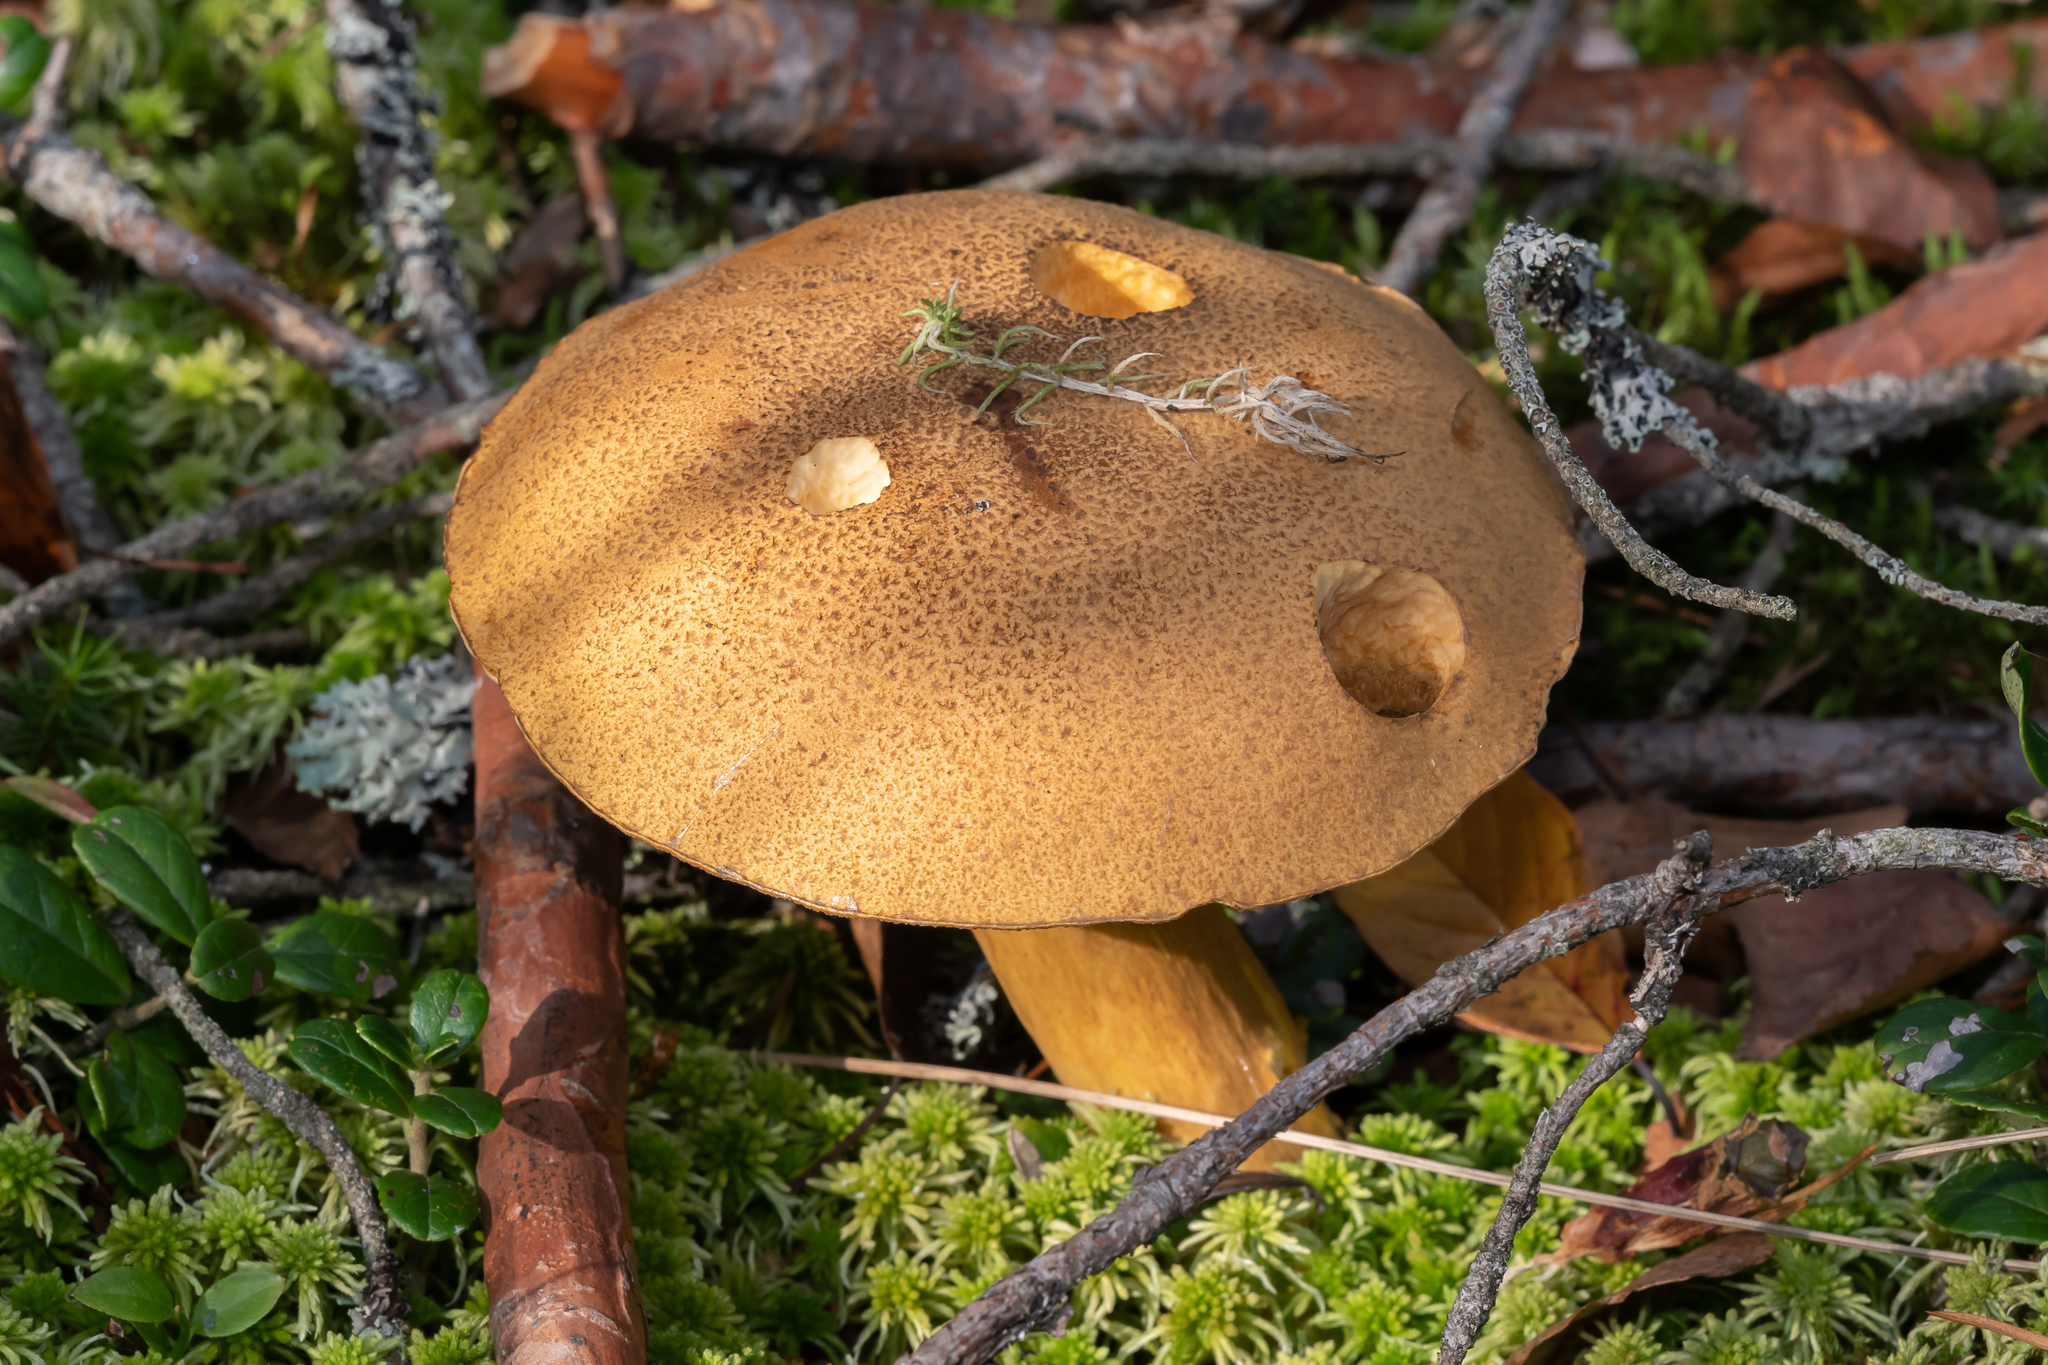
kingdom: Fungi
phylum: Basidiomycota
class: Agaricomycetes
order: Boletales
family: Suillaceae
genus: Suillus
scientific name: Suillus variegatus
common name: Velvet bolete
